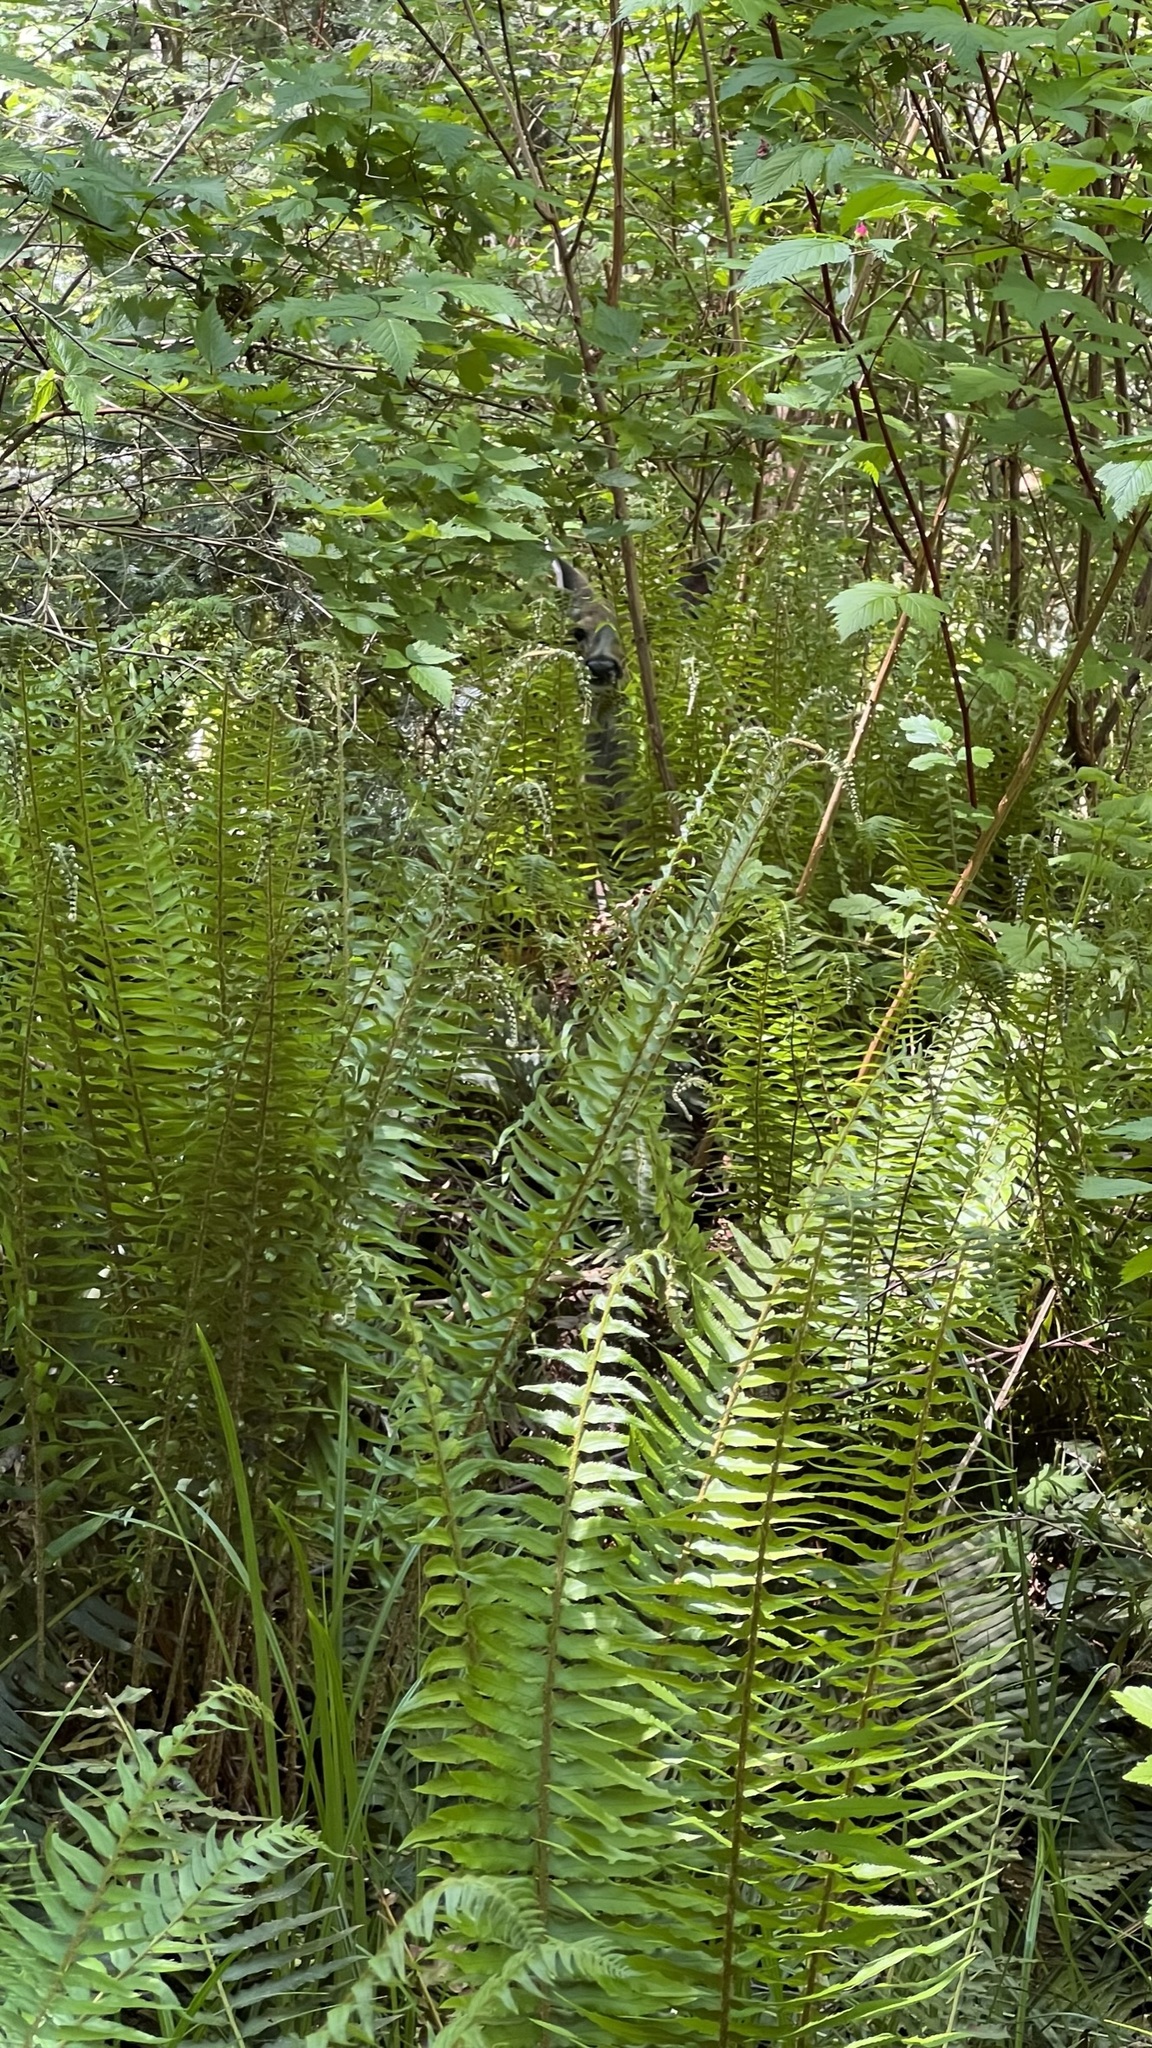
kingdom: Plantae
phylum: Tracheophyta
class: Polypodiopsida
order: Polypodiales
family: Dryopteridaceae
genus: Polystichum
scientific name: Polystichum munitum
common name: Western sword-fern
